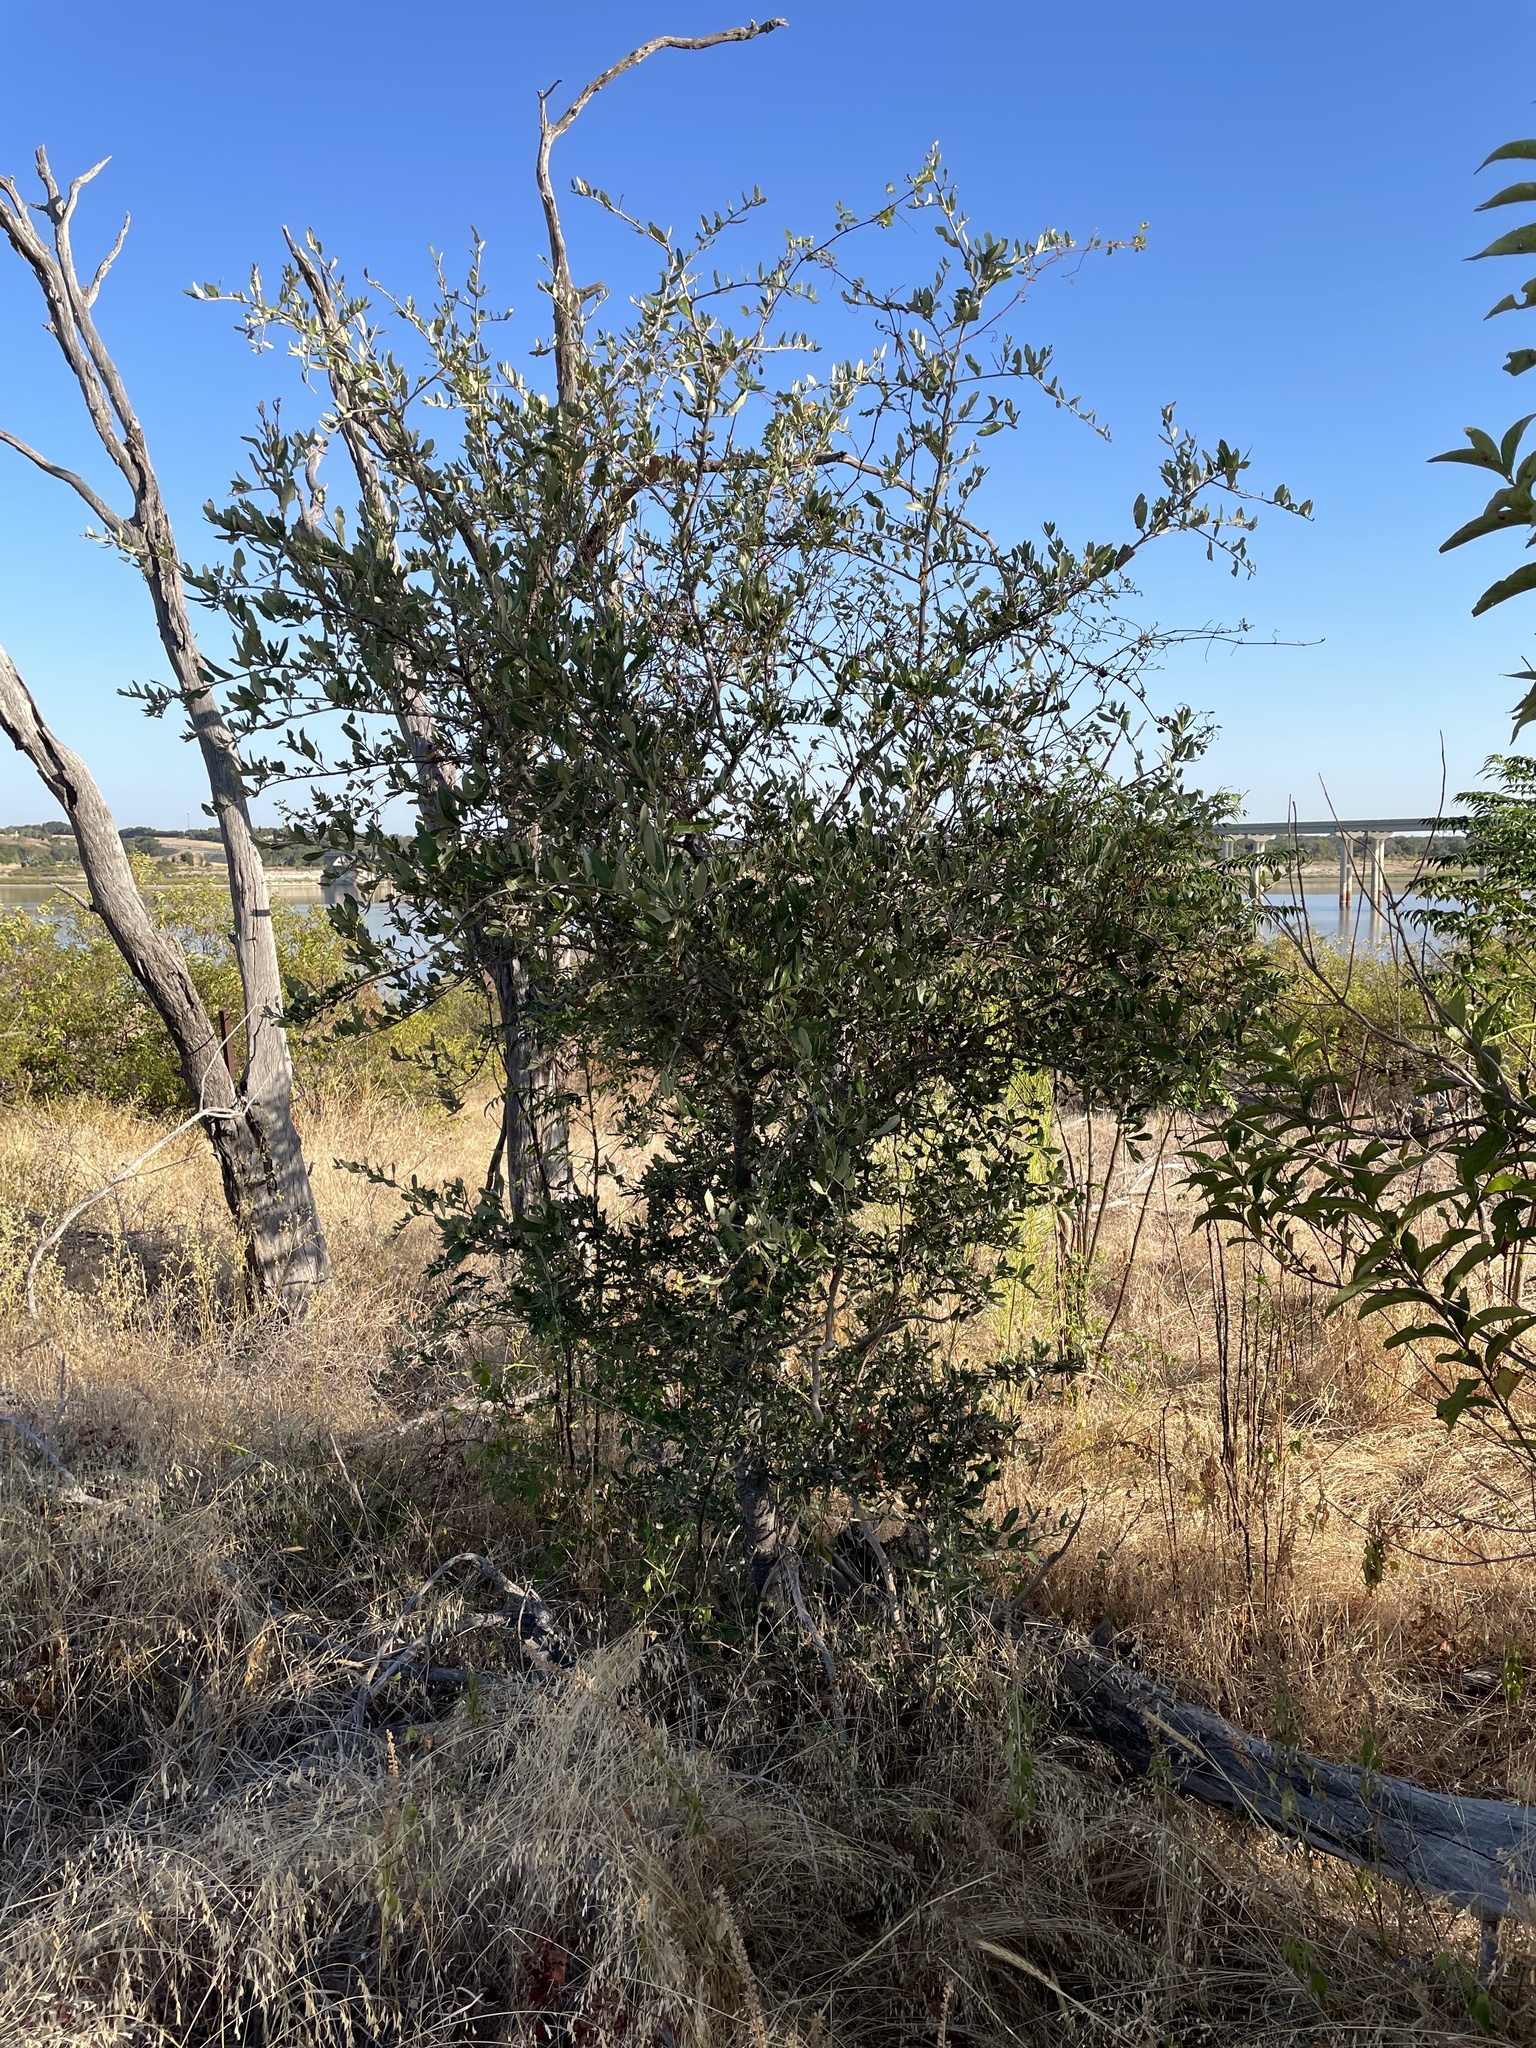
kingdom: Plantae
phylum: Tracheophyta
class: Magnoliopsida
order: Fagales
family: Fagaceae
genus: Quercus
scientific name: Quercus fusiformis
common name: Texas live oak
